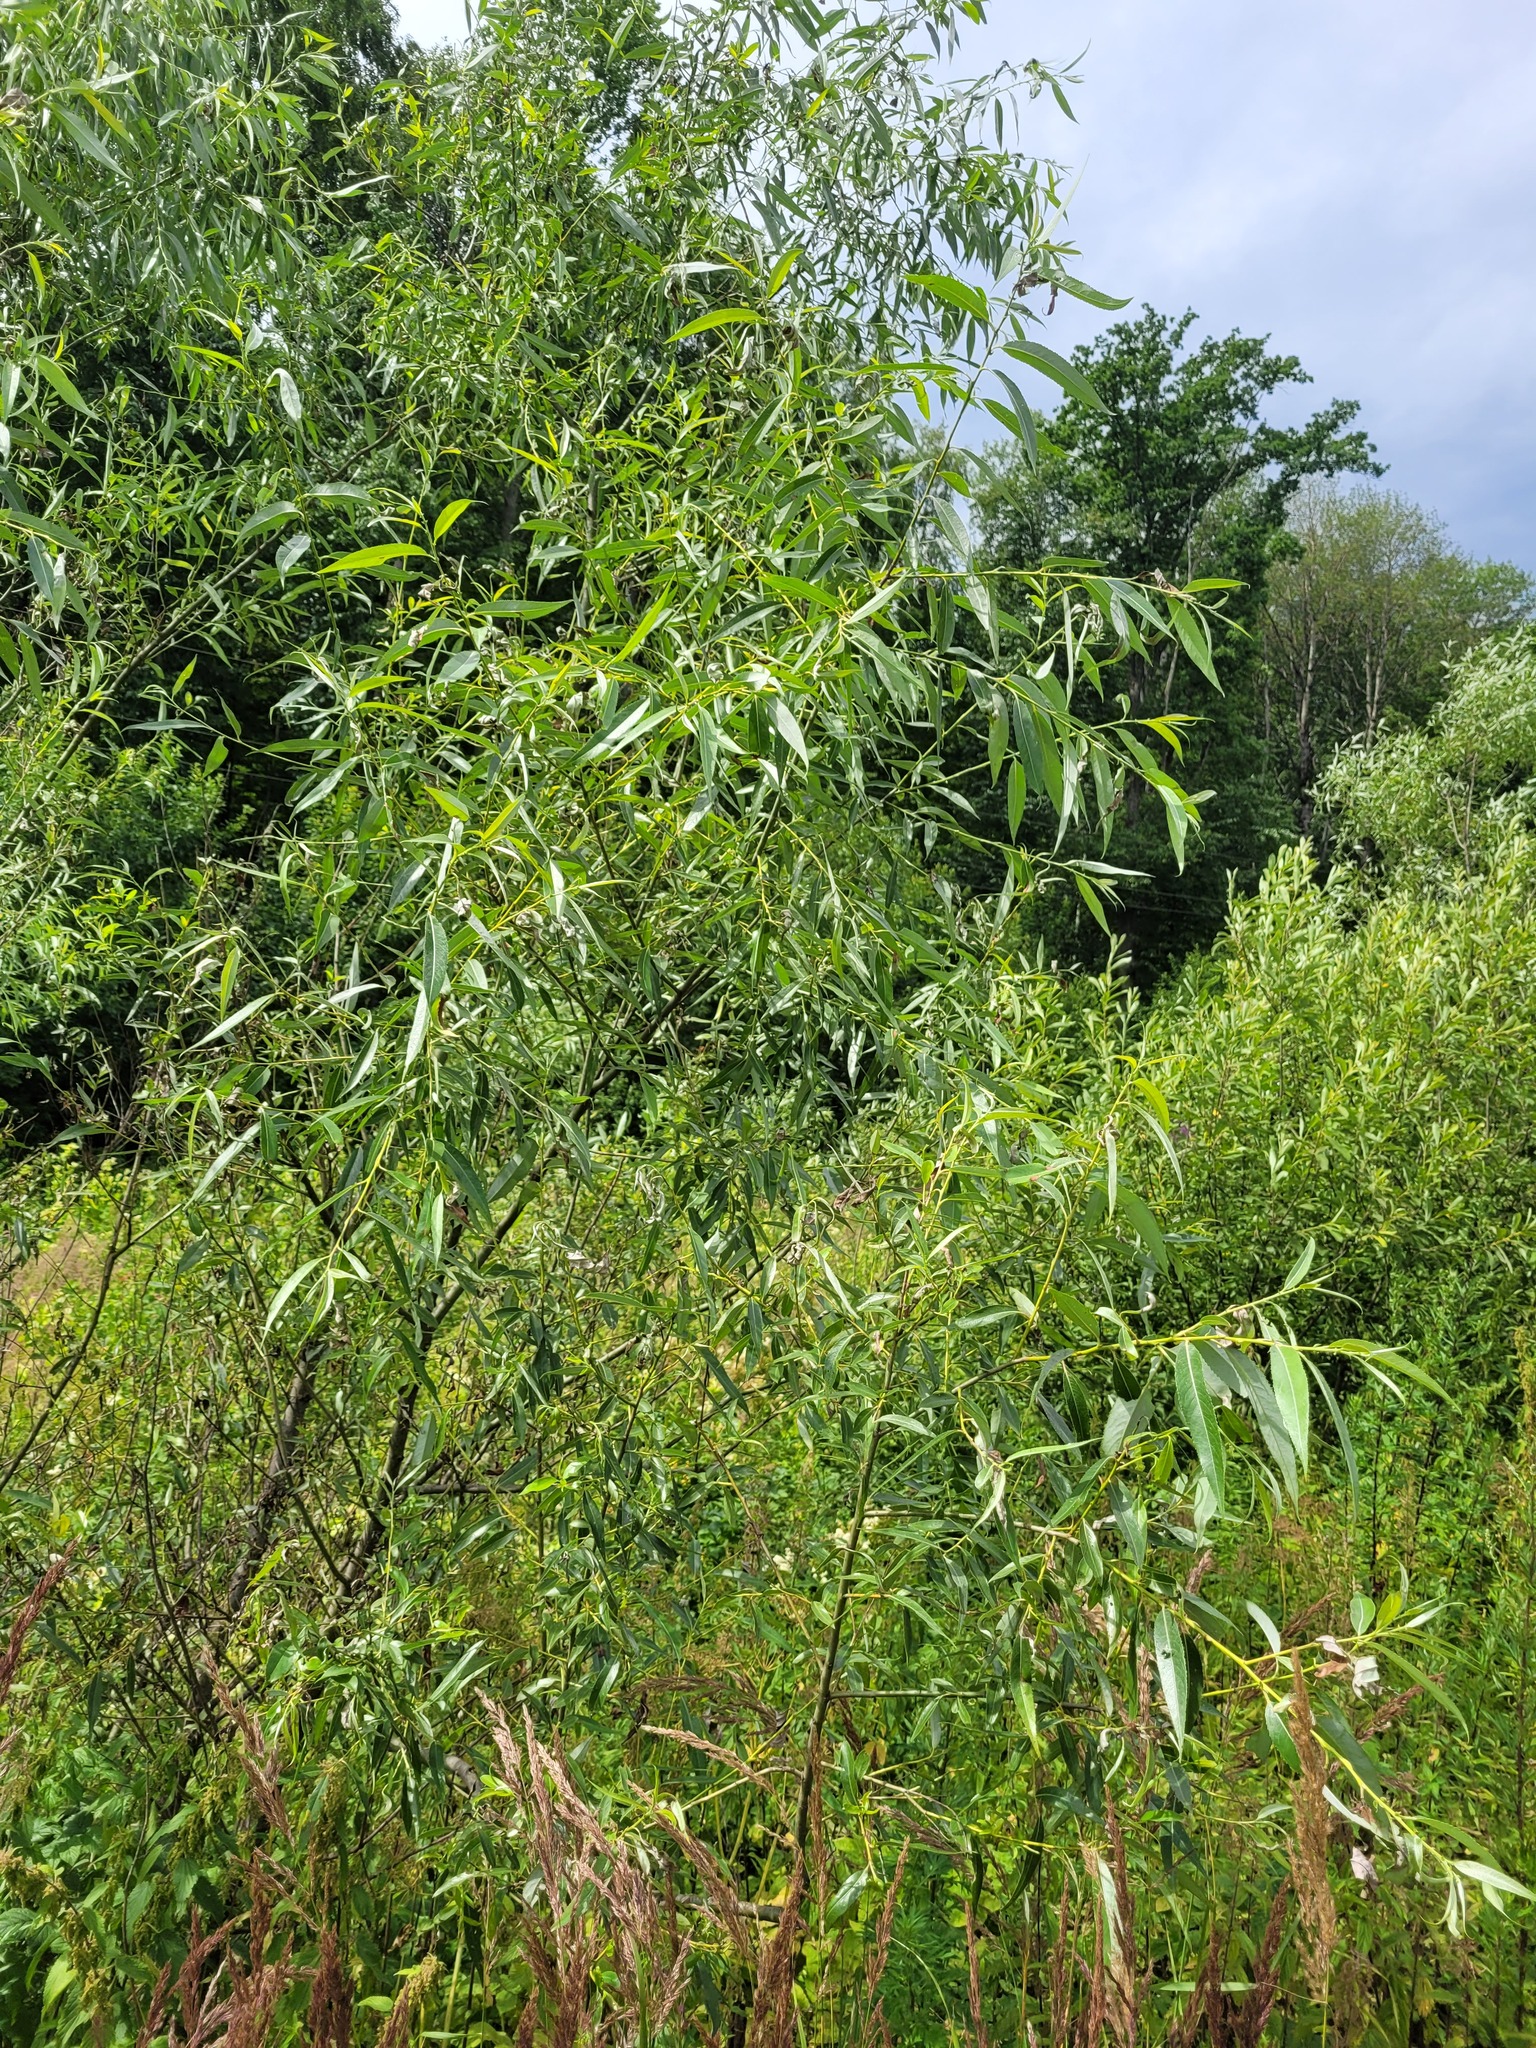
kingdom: Plantae
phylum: Tracheophyta
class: Magnoliopsida
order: Malpighiales
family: Salicaceae
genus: Salix
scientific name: Salix alba
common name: White willow
